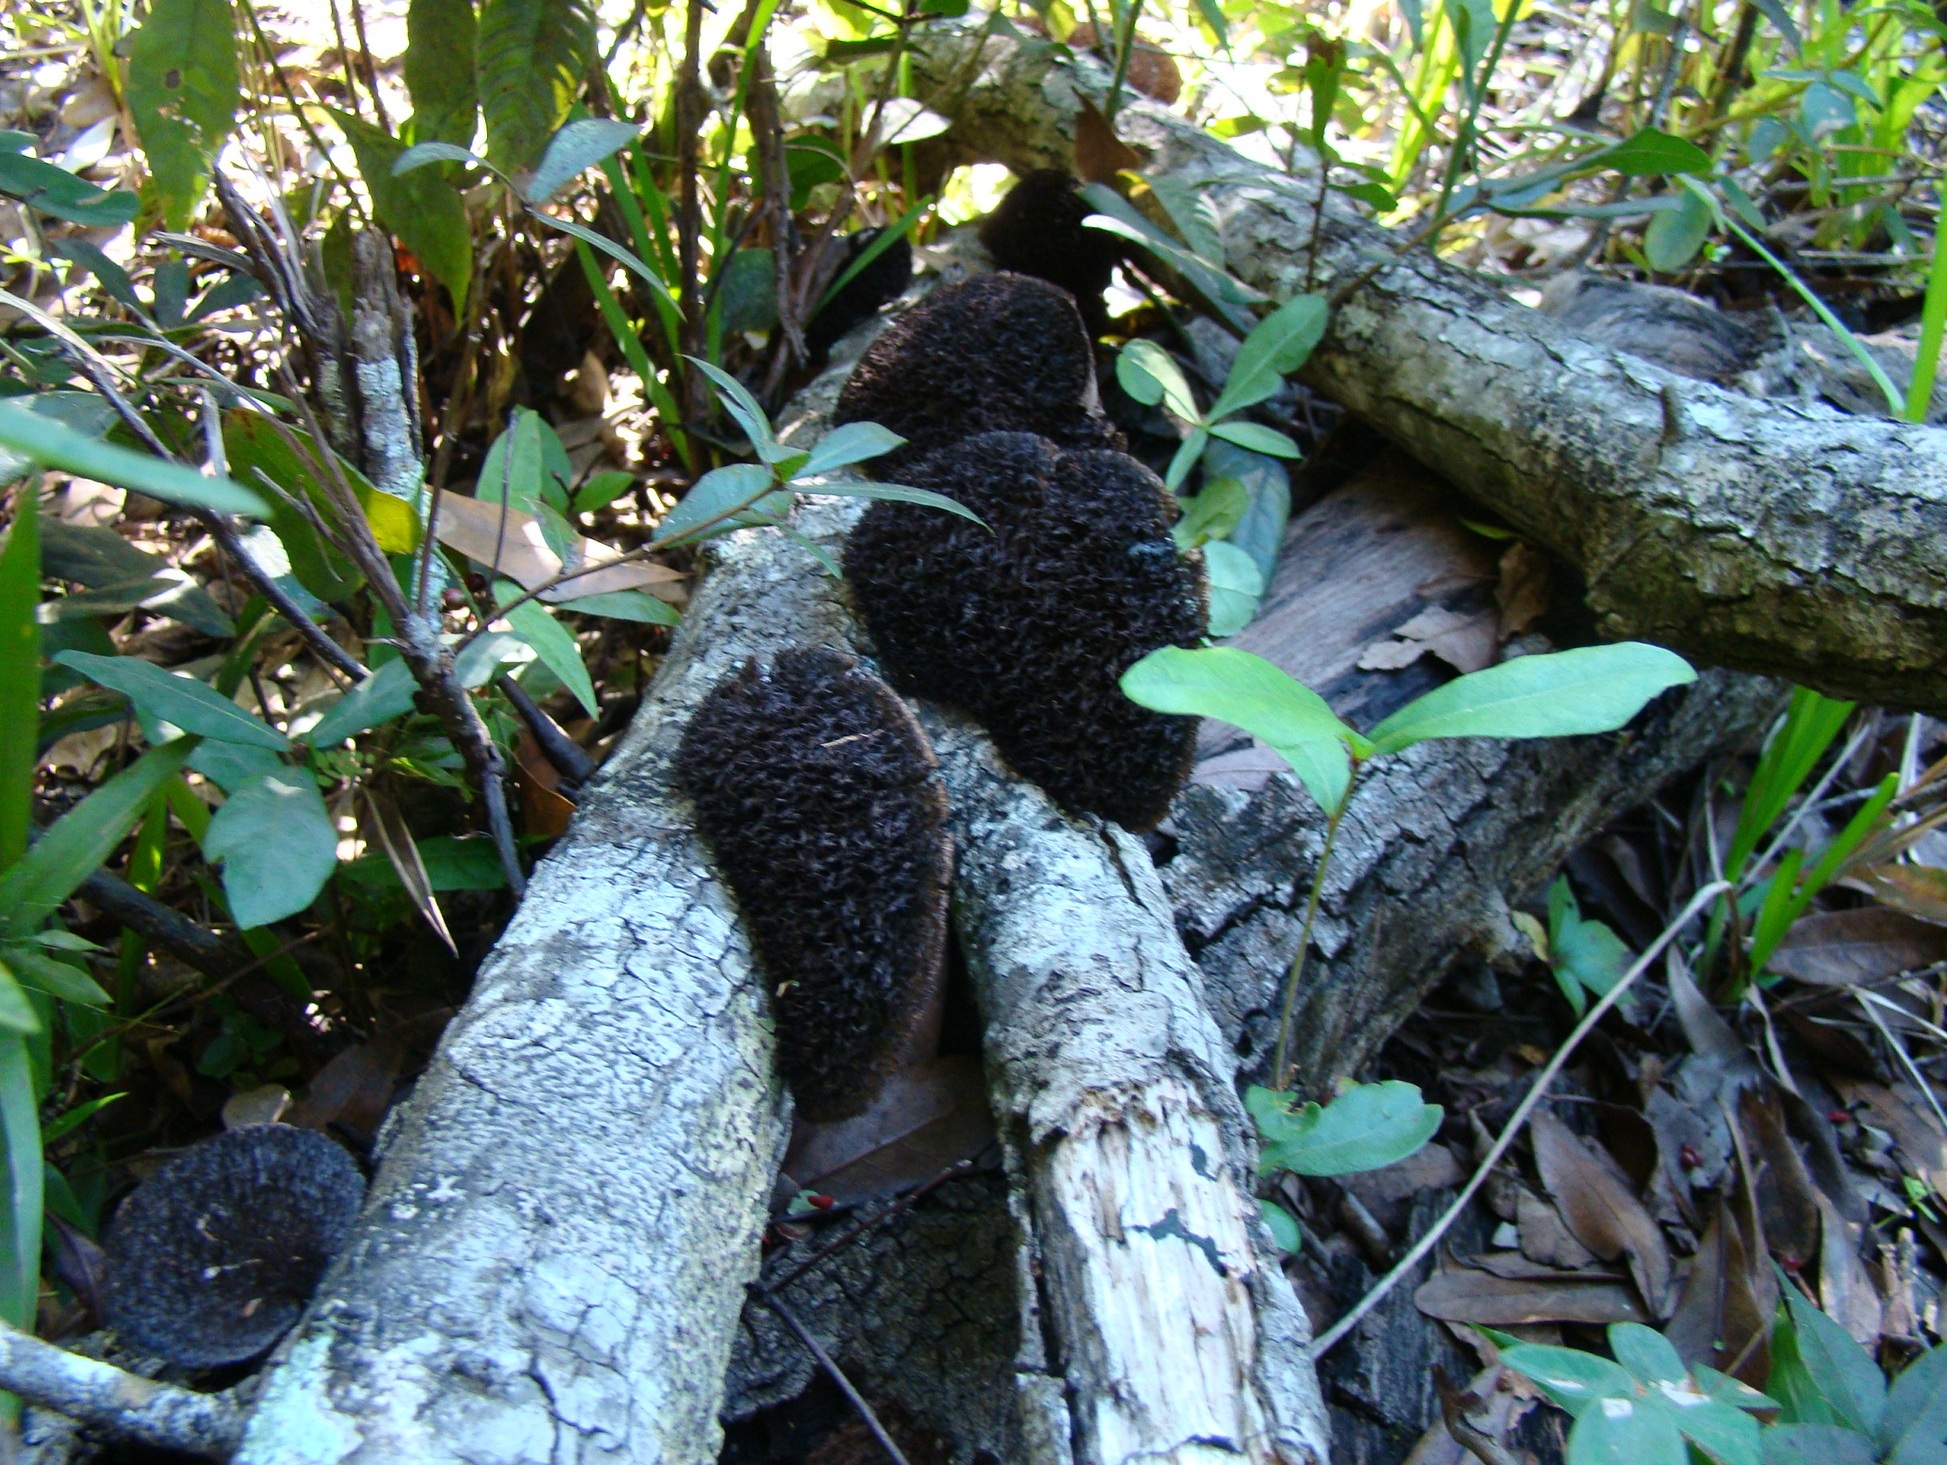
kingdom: Fungi
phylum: Basidiomycota
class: Agaricomycetes
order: Polyporales
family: Cerrenaceae
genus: Cerrena
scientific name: Cerrena hydnoides
